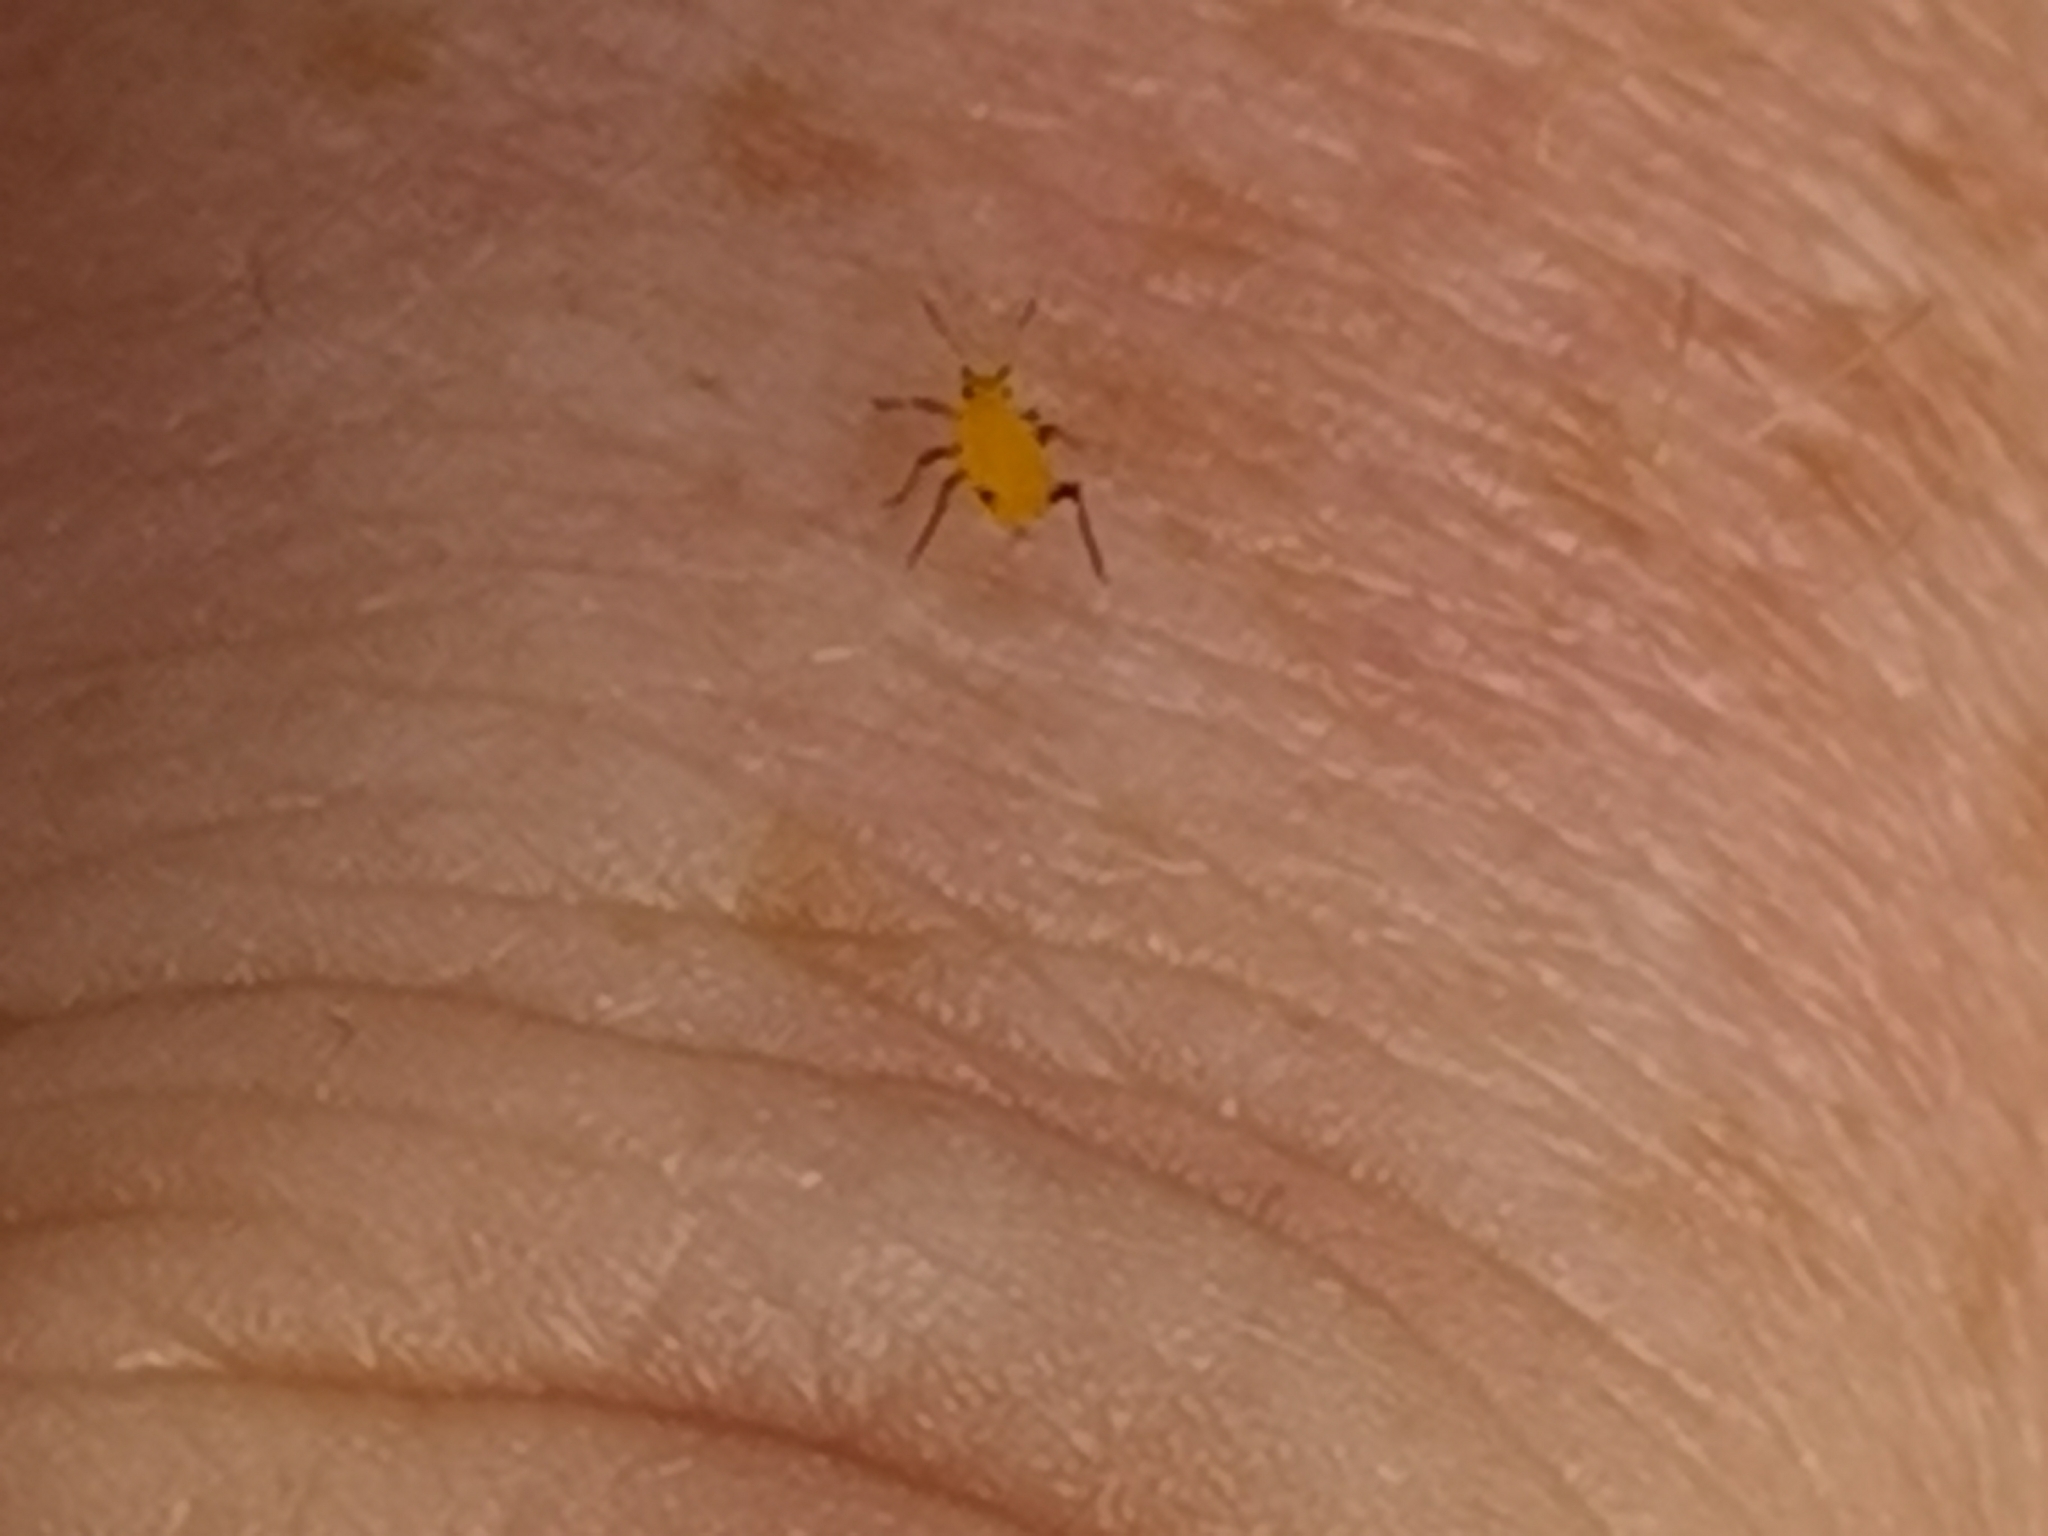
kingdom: Animalia
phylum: Arthropoda
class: Insecta
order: Hemiptera
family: Aphididae
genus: Aphis
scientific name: Aphis nerii
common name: Oleander aphid
